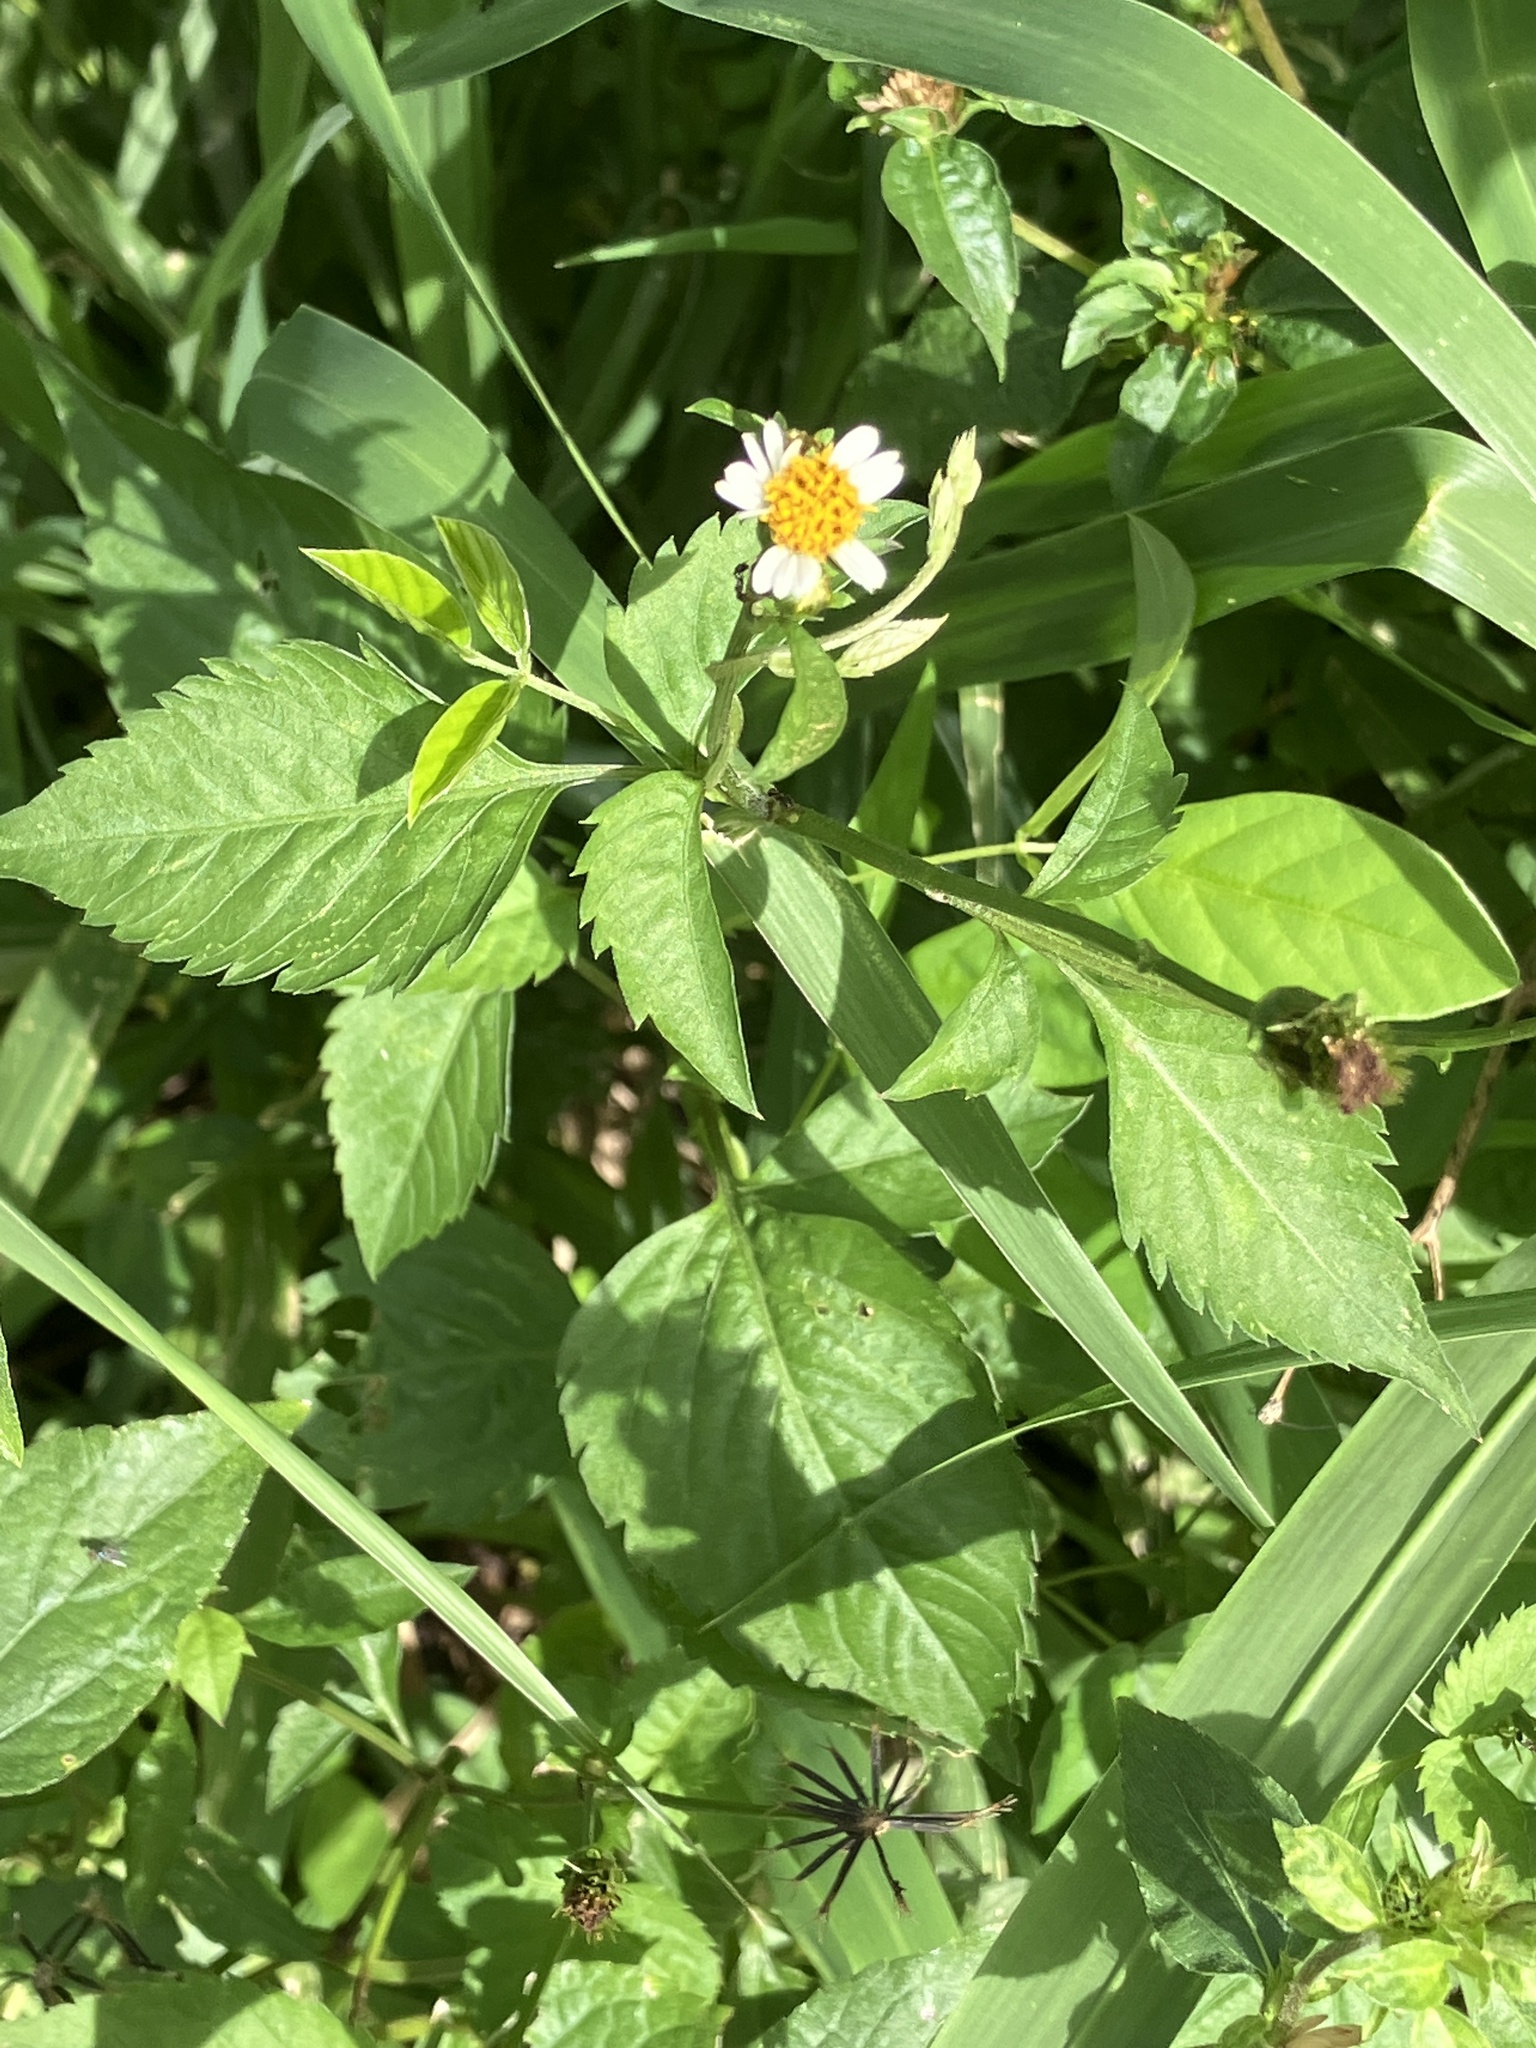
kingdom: Plantae
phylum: Tracheophyta
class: Magnoliopsida
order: Asterales
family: Asteraceae
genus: Bidens
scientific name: Bidens alba
